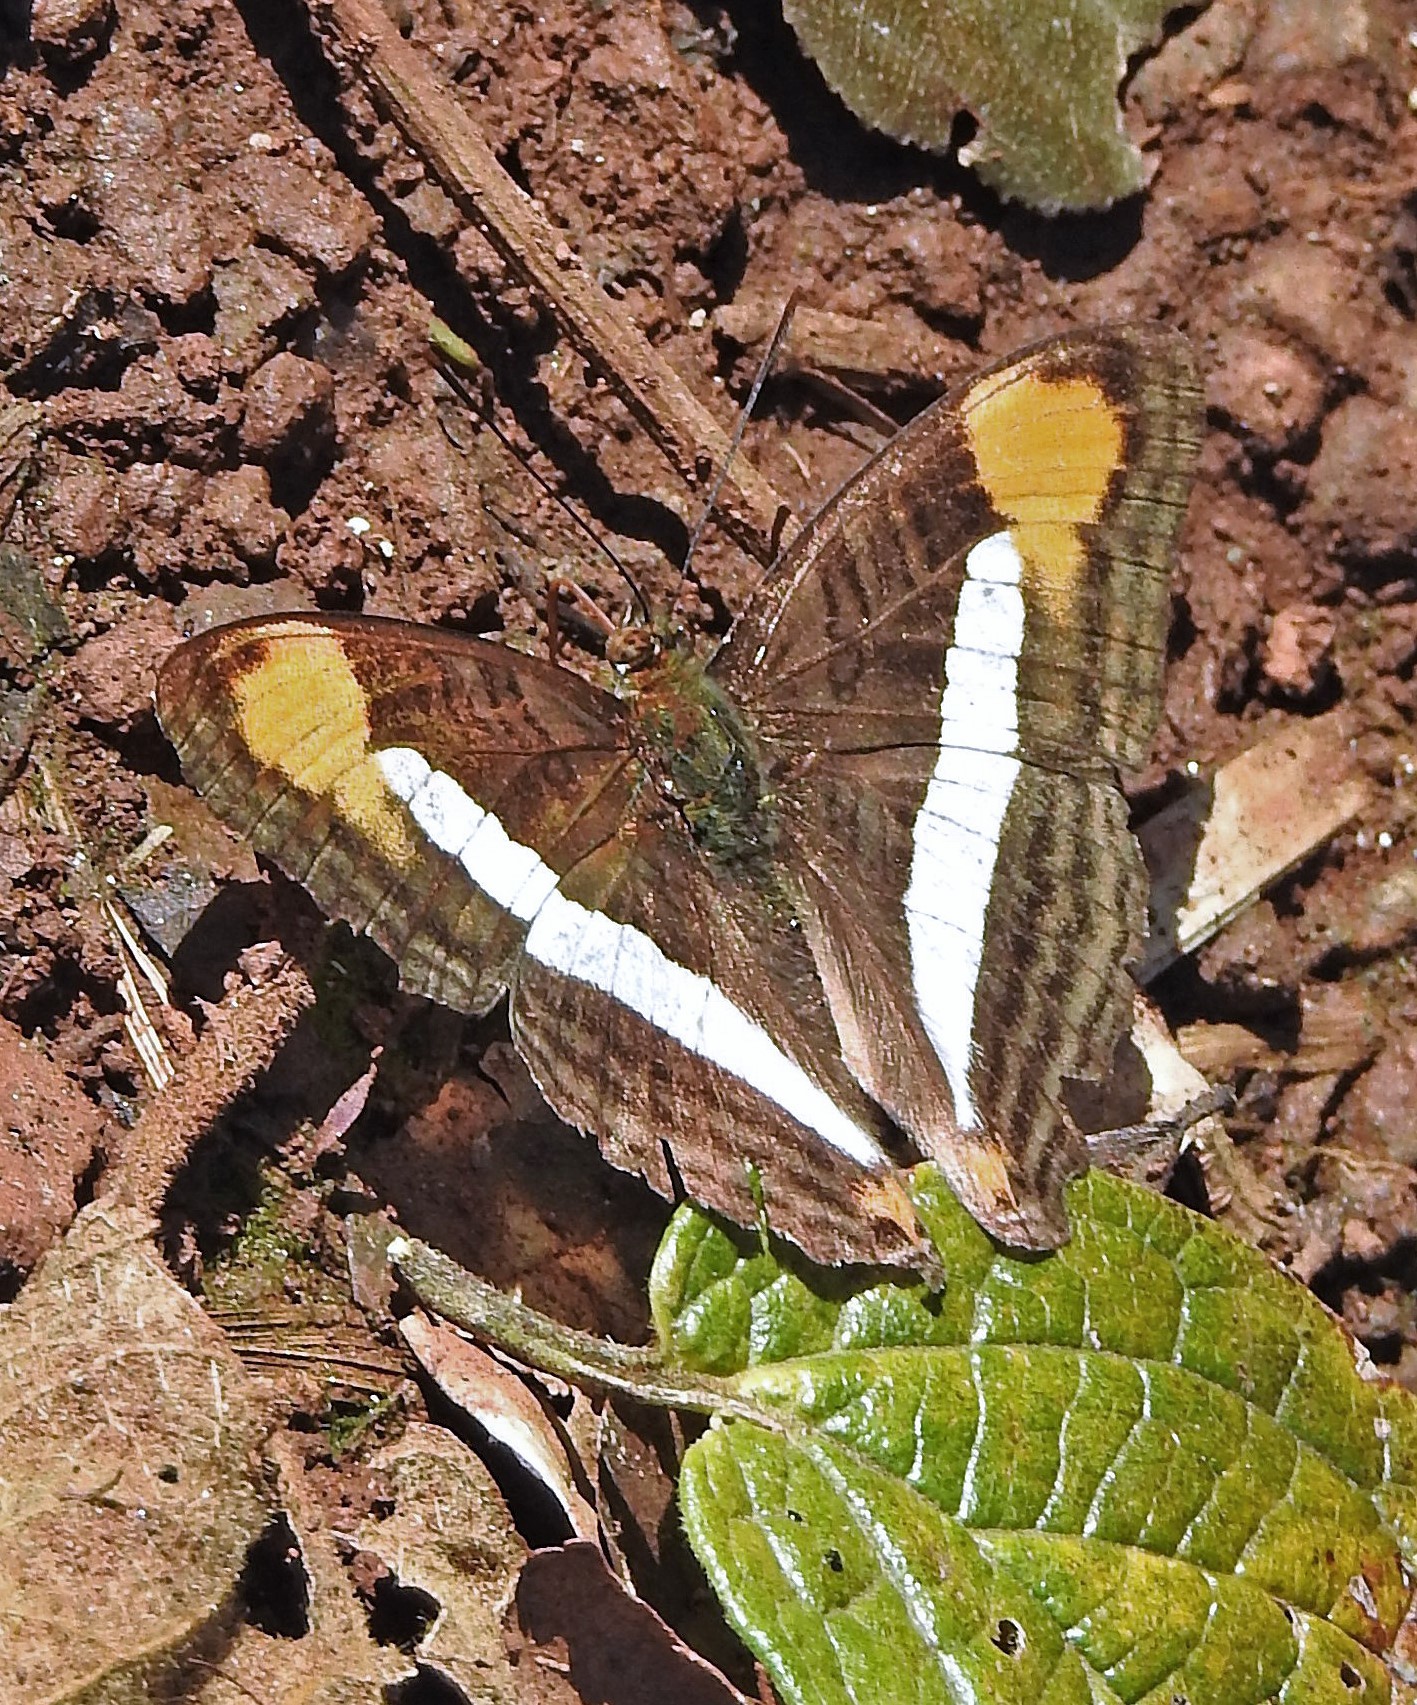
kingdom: Animalia
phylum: Arthropoda
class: Insecta
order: Lepidoptera
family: Nymphalidae
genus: Limenitis
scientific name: Limenitis epizygis
